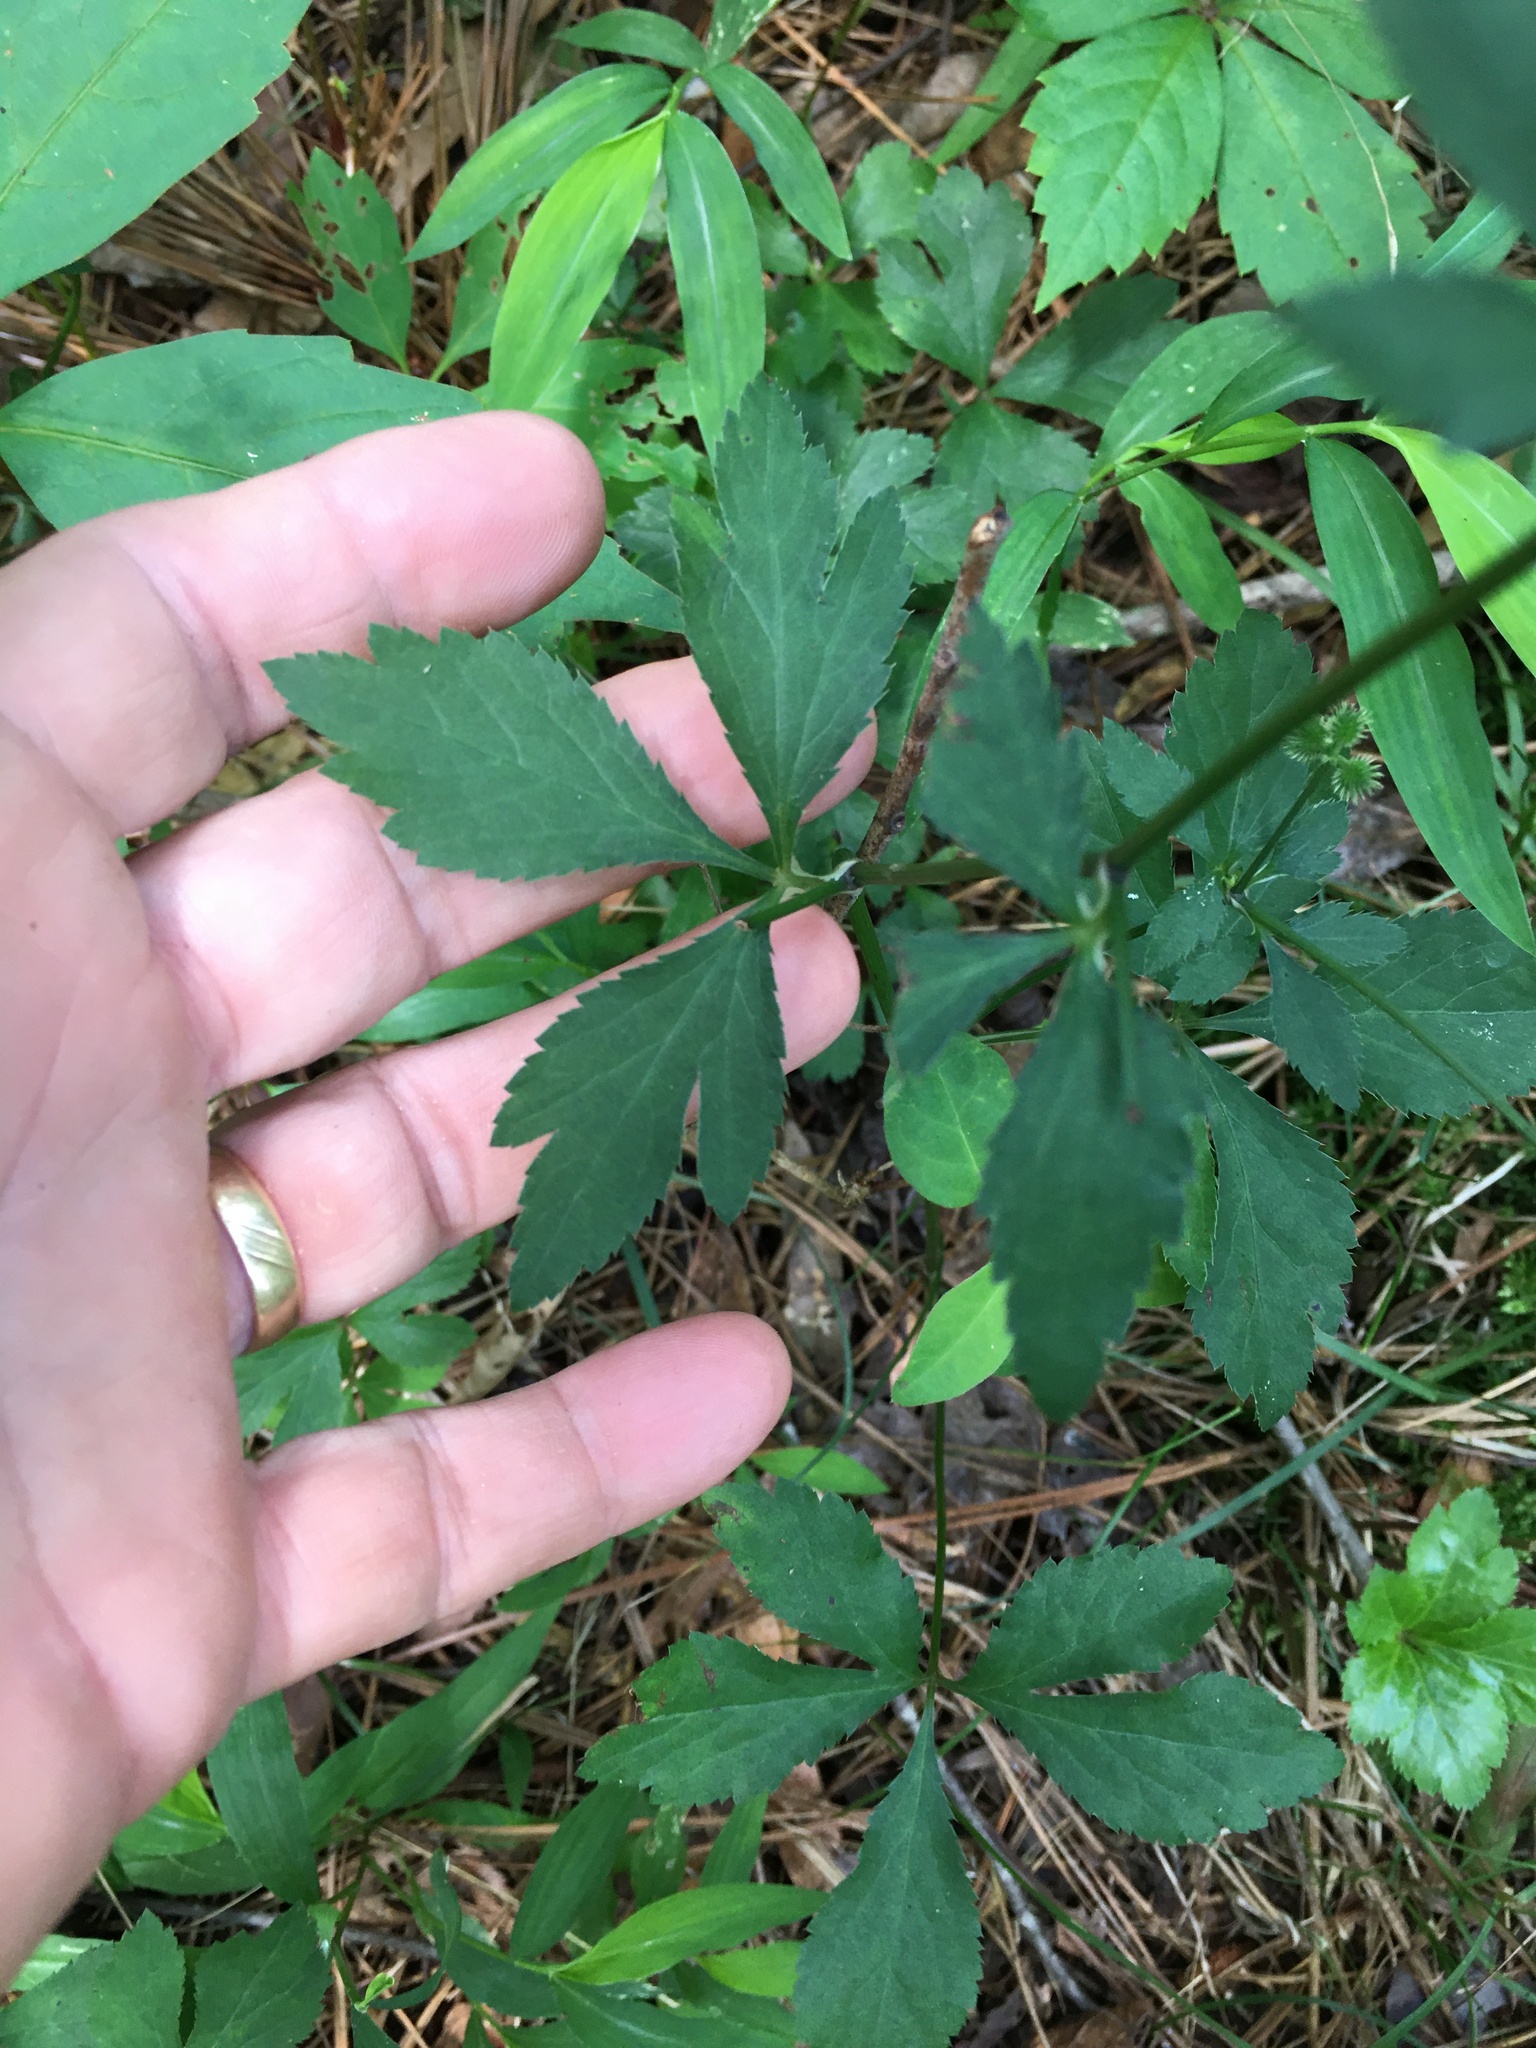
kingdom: Plantae
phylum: Tracheophyta
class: Magnoliopsida
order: Apiales
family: Apiaceae
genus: Sanicula
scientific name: Sanicula canadensis
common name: Canada sanicle
